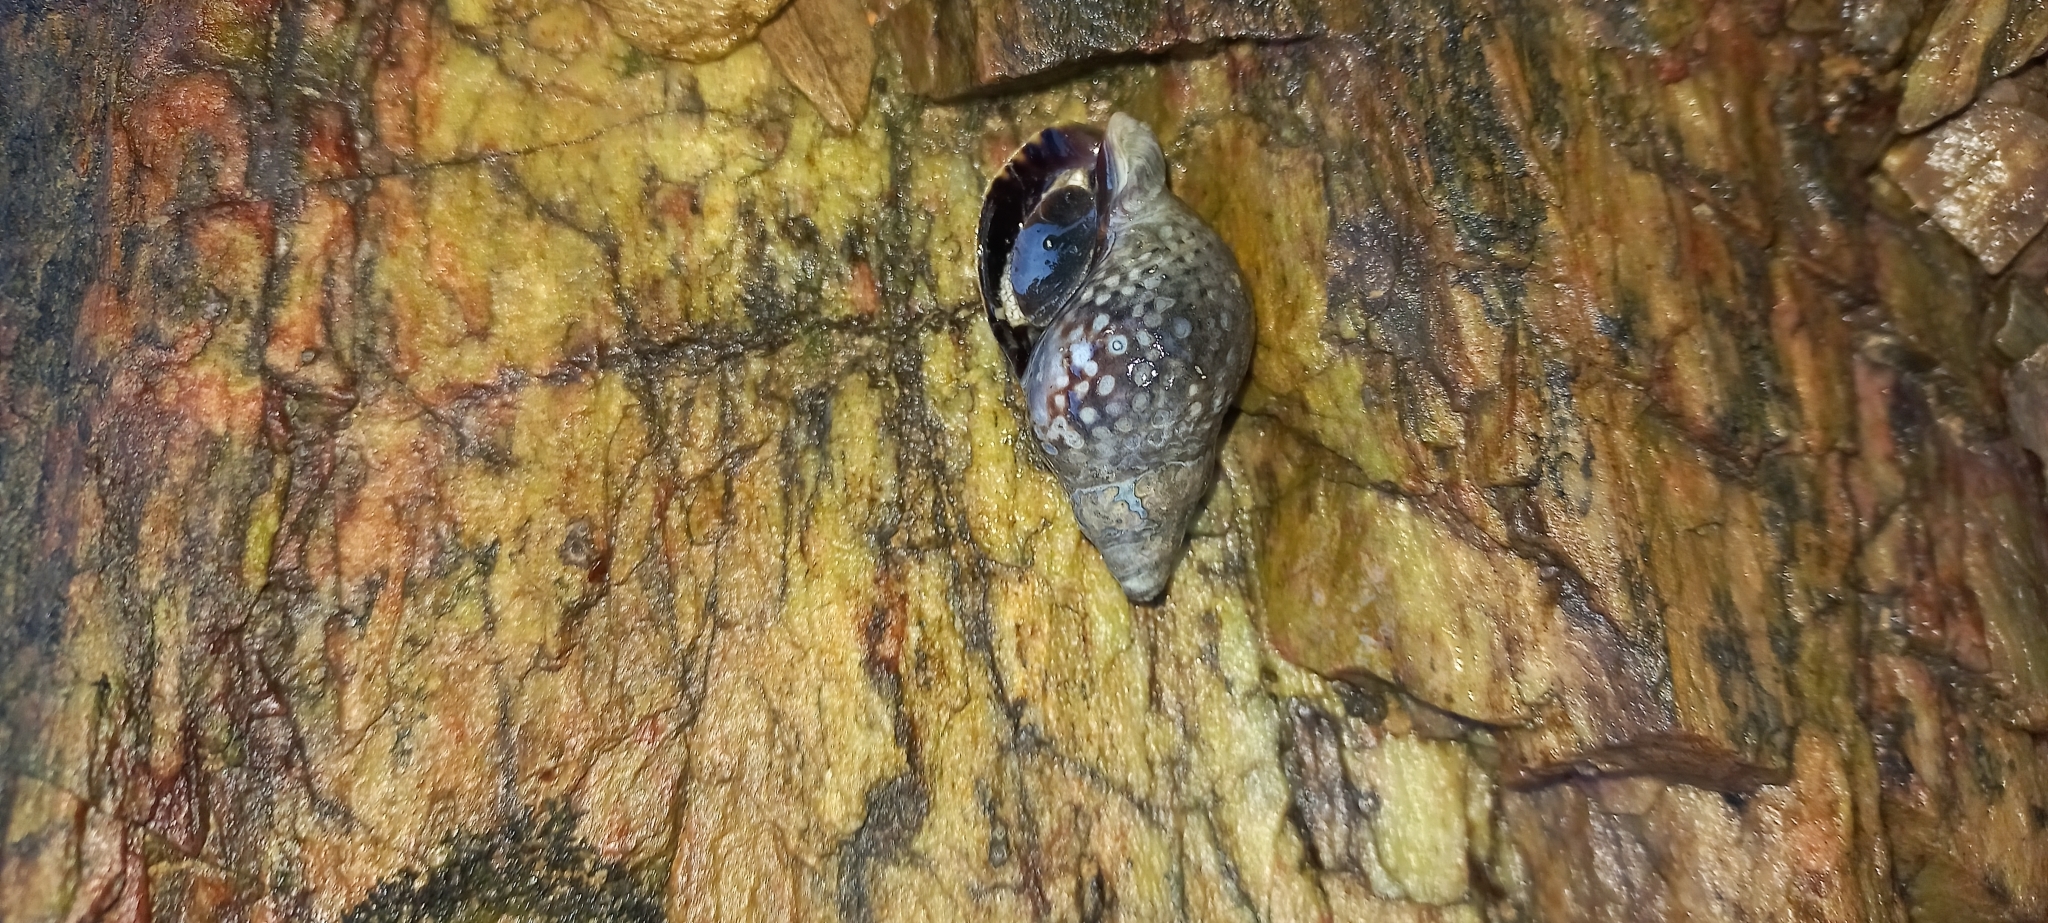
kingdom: Animalia
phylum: Mollusca
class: Gastropoda
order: Neogastropoda
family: Cominellidae
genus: Cominella
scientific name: Cominella maculosa
